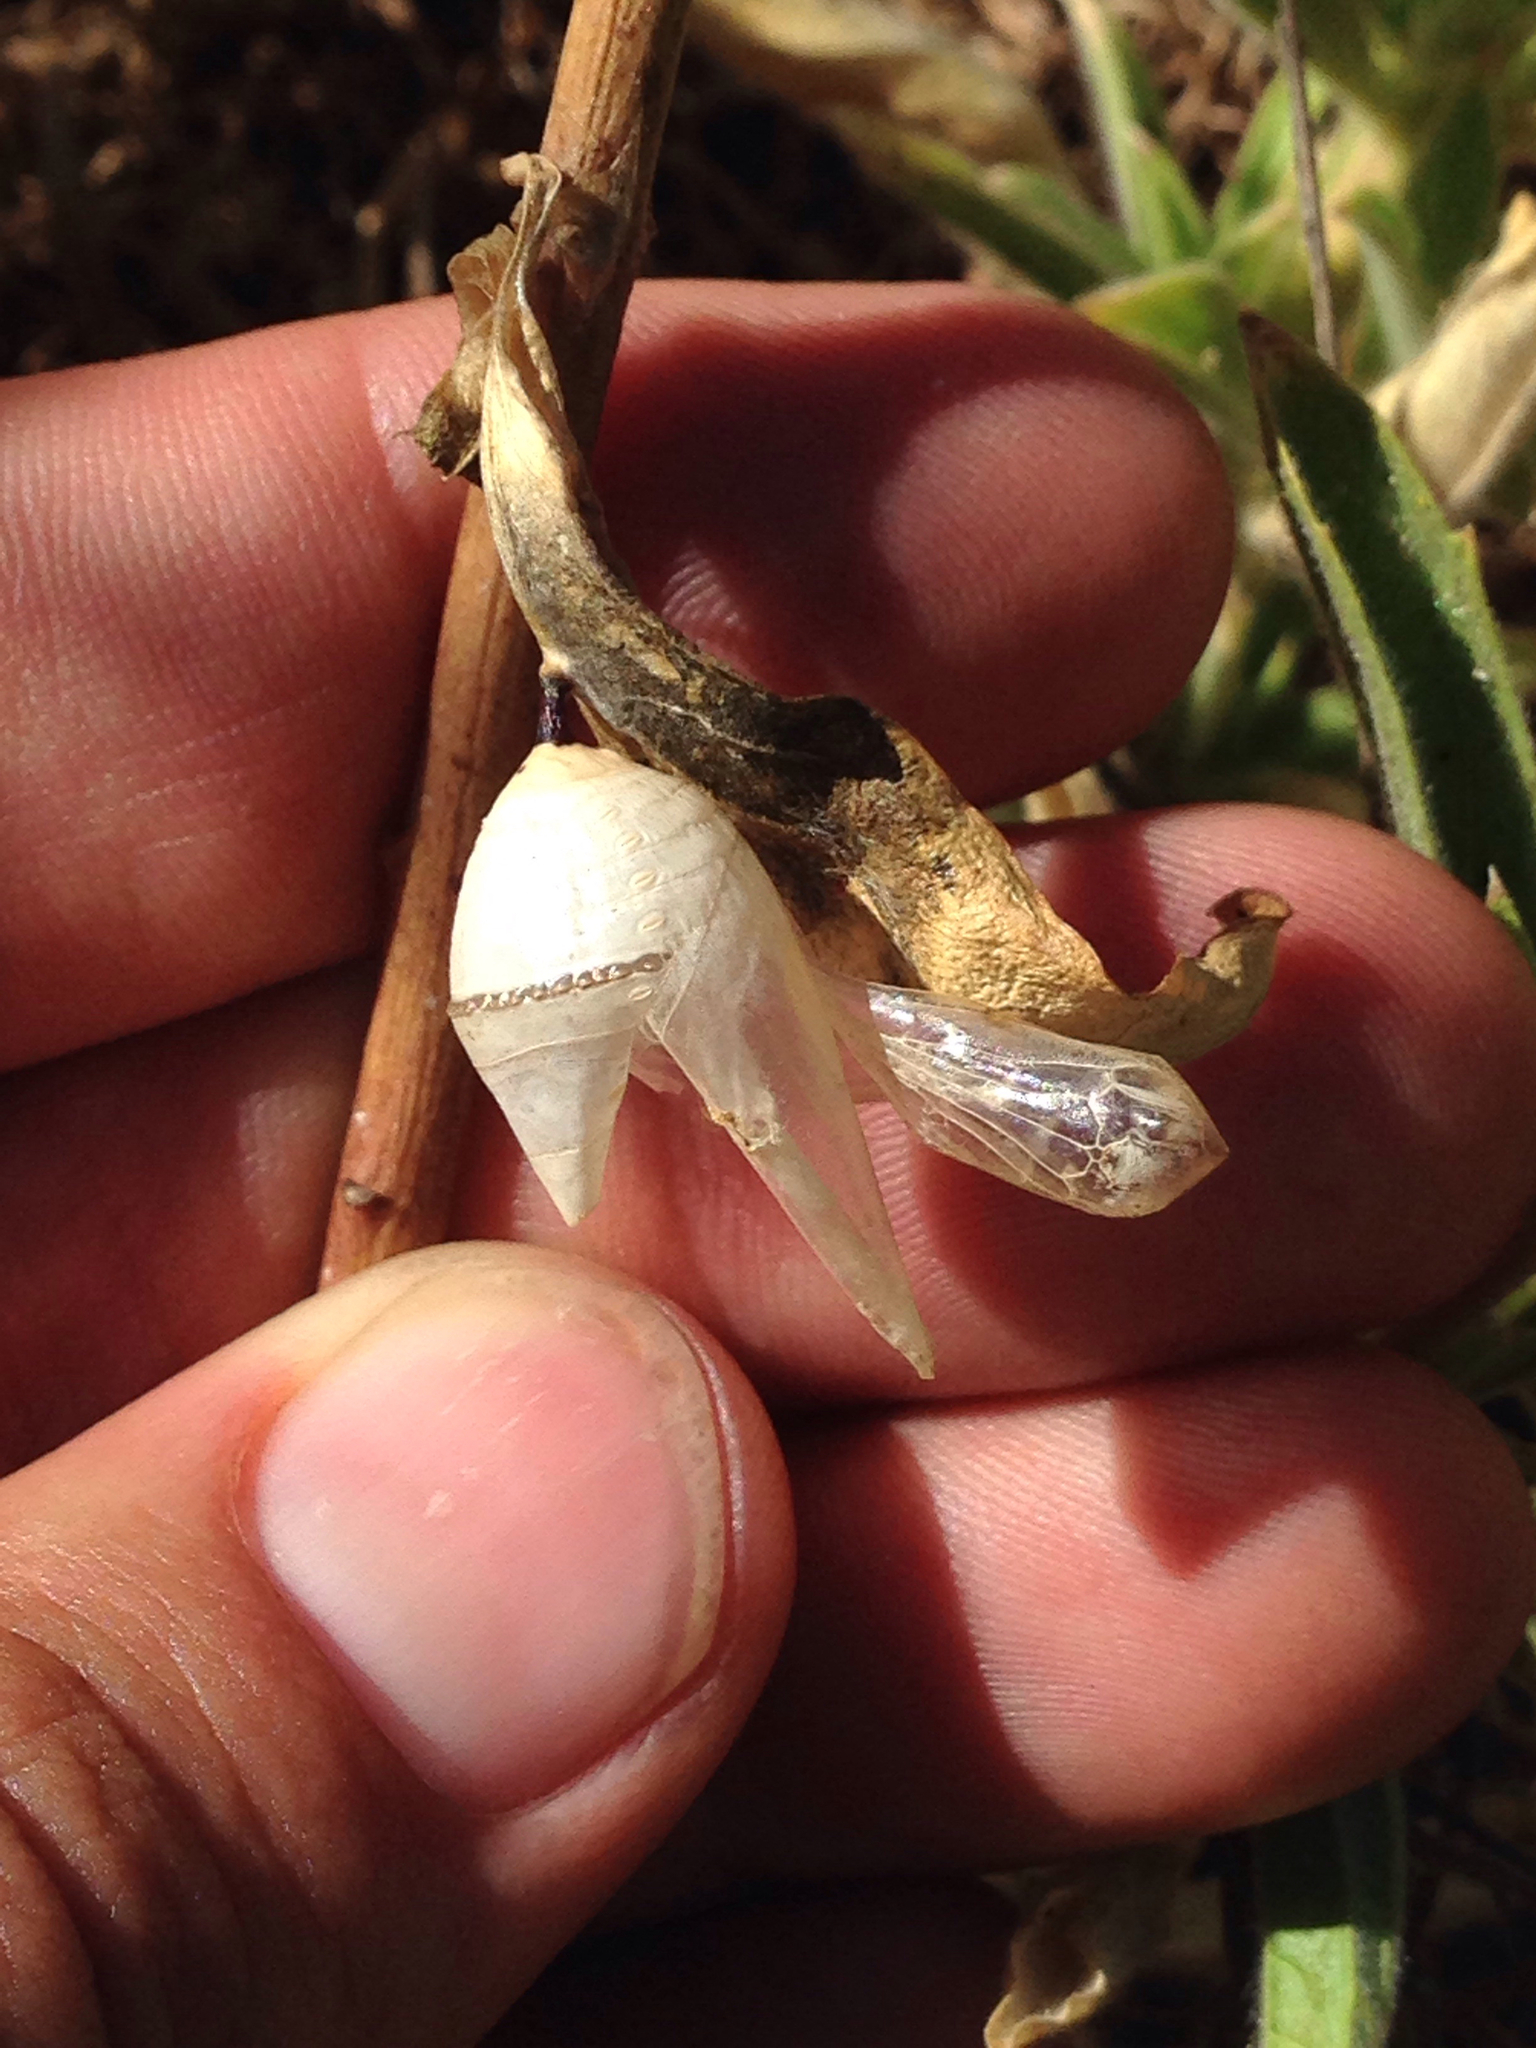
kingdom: Animalia
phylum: Arthropoda
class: Insecta
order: Lepidoptera
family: Nymphalidae
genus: Danaus
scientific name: Danaus plexippus
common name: Monarch
